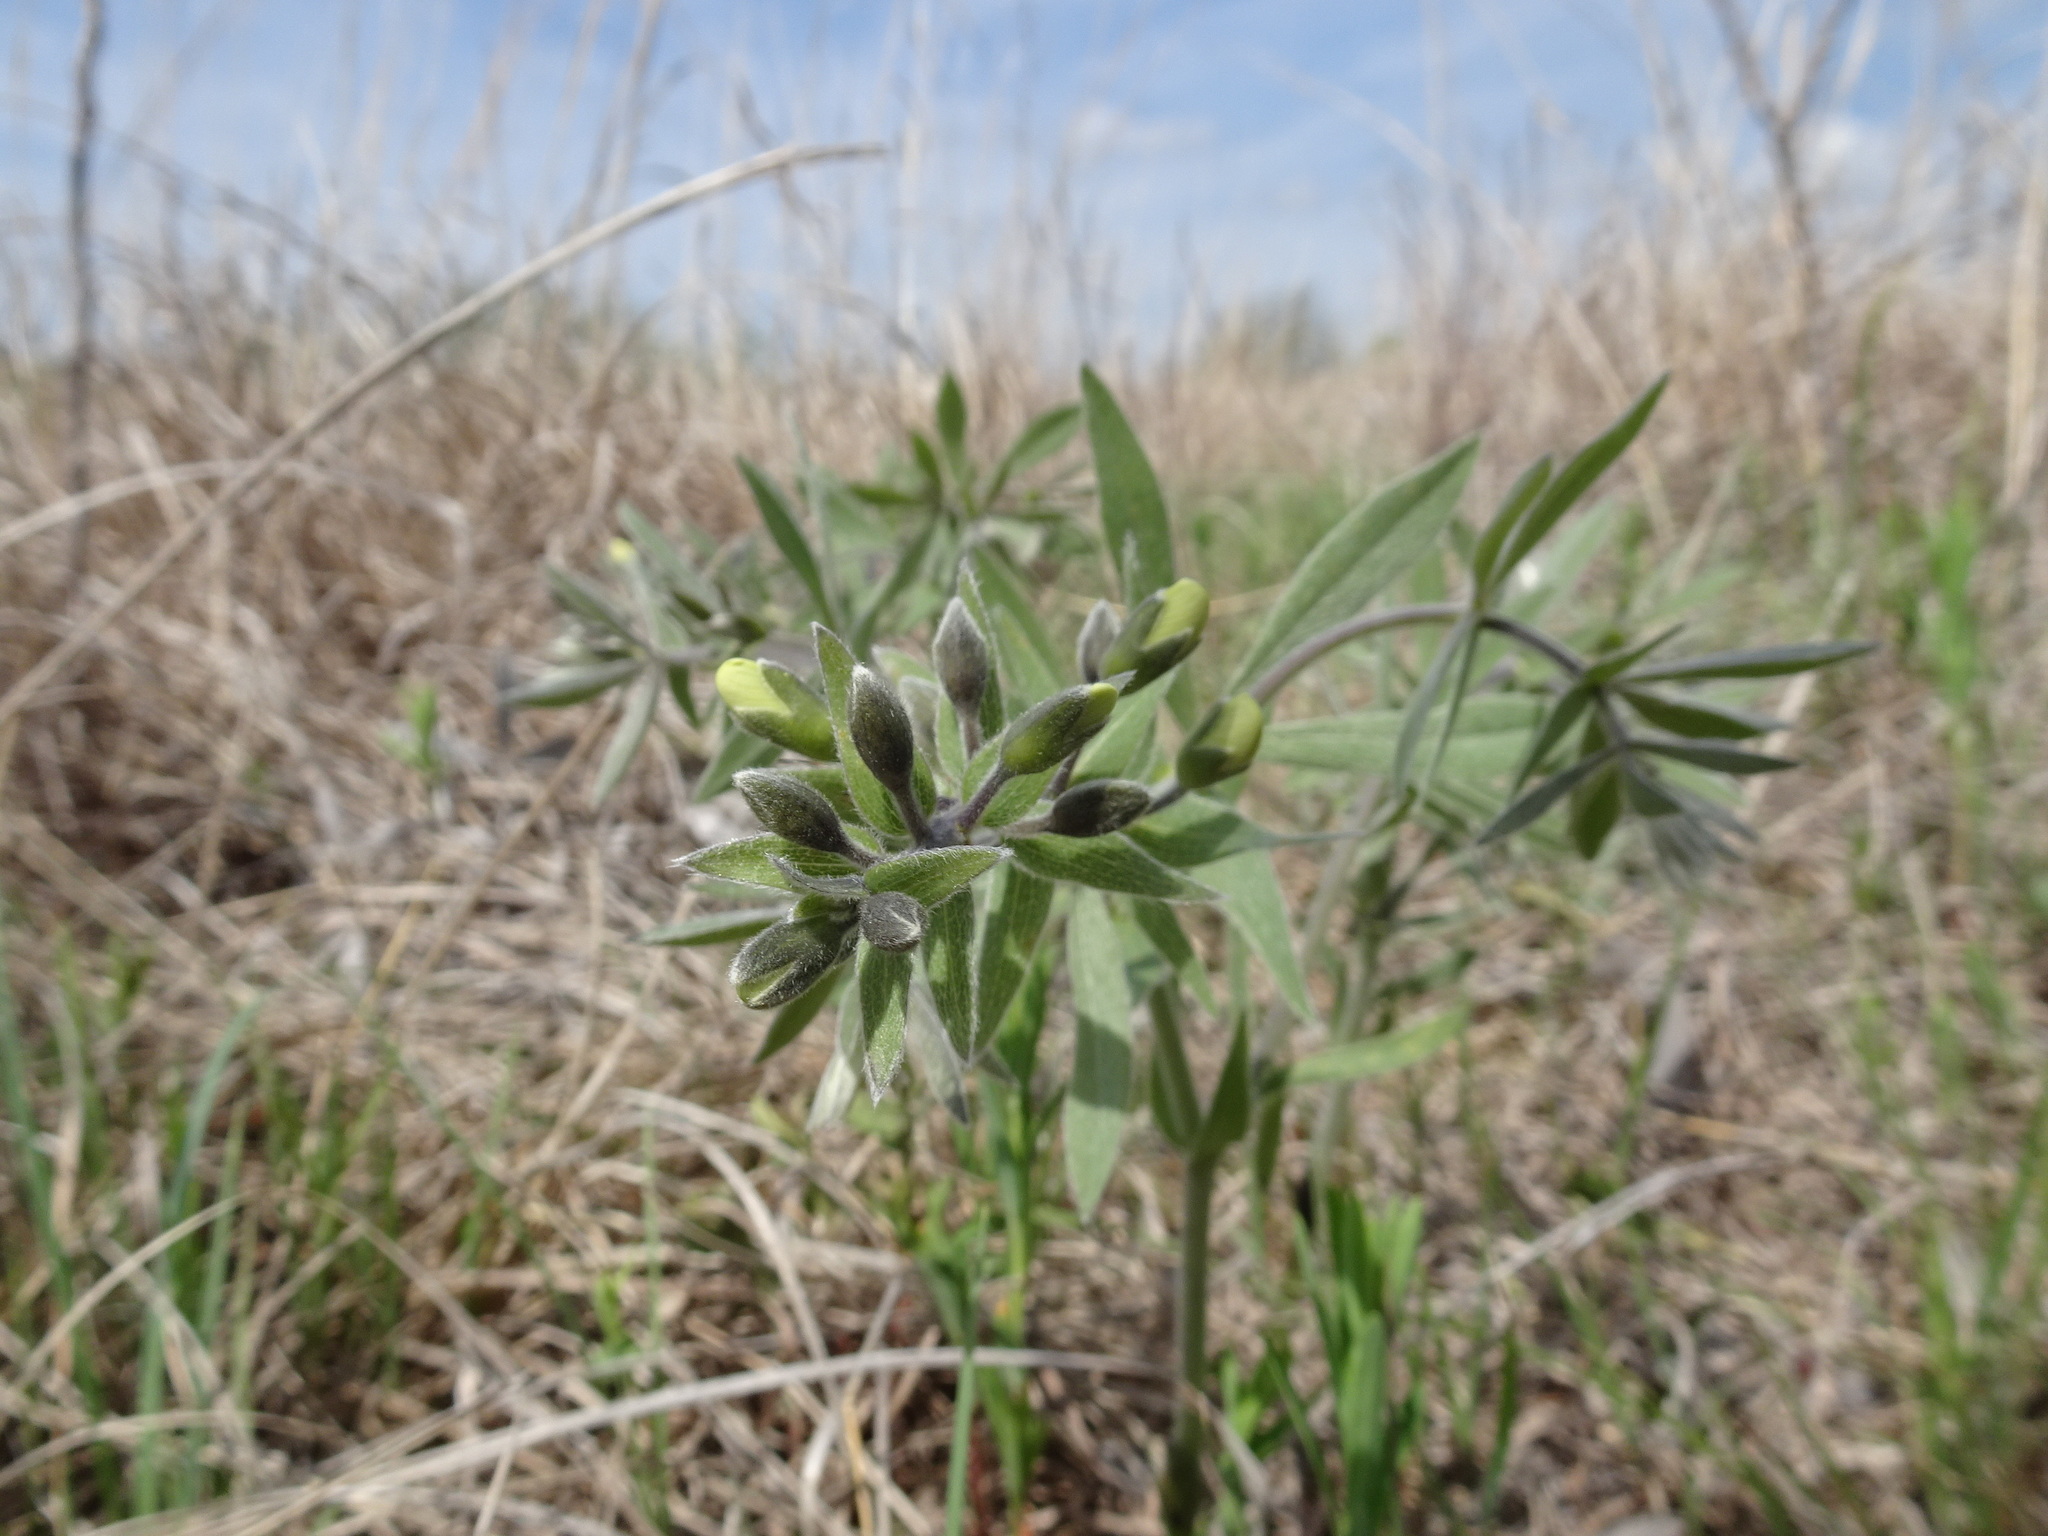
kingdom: Plantae
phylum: Tracheophyta
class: Magnoliopsida
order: Fabales
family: Fabaceae
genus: Baptisia
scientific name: Baptisia bracteata
